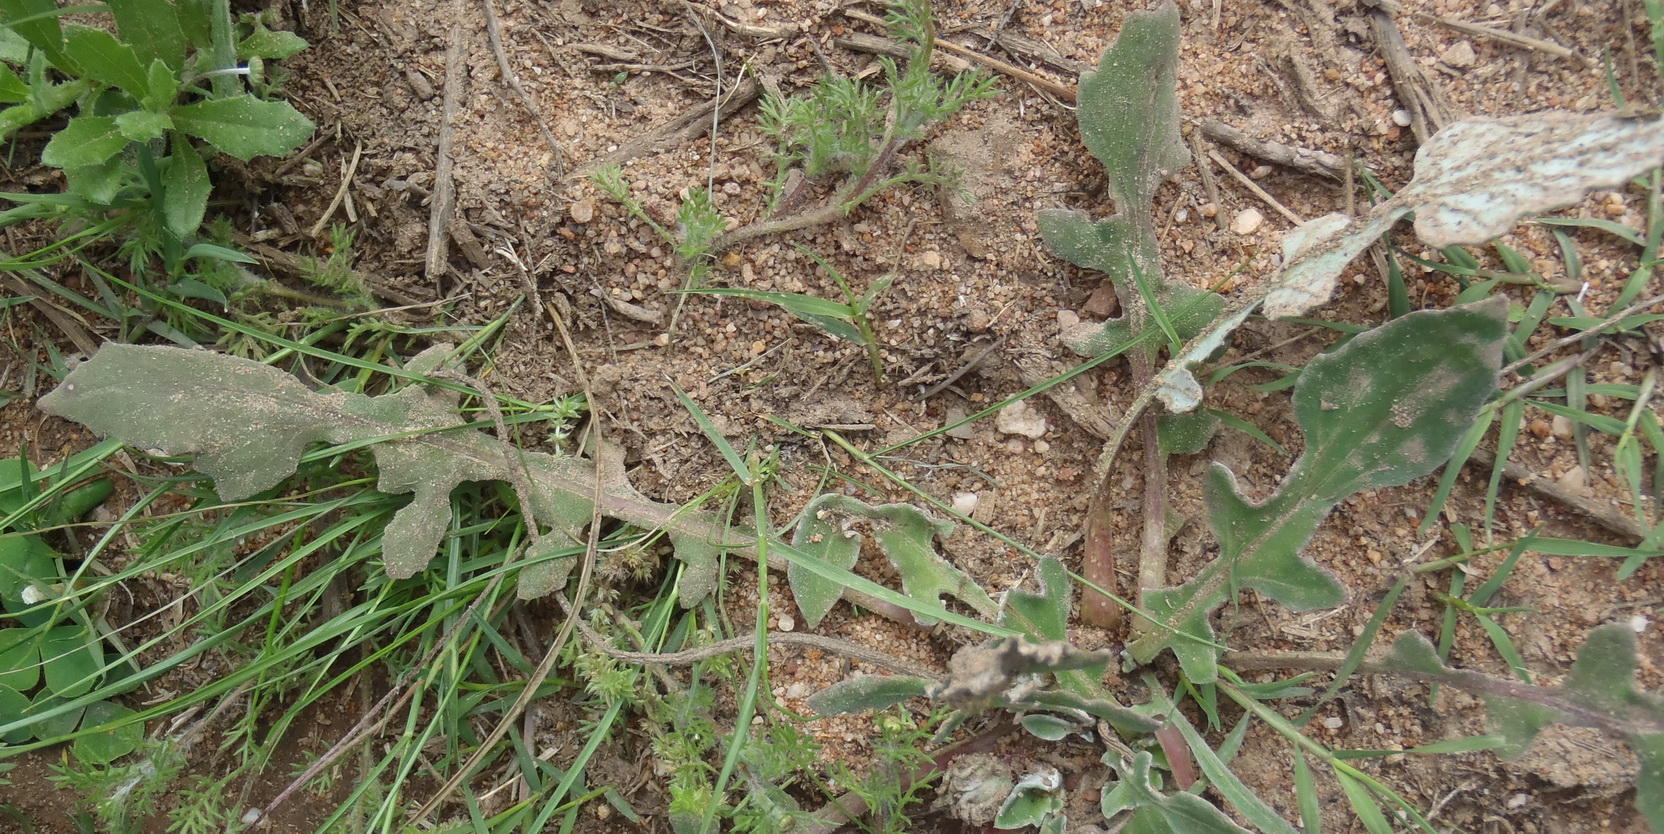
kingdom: Plantae
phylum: Tracheophyta
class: Magnoliopsida
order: Asterales
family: Asteraceae
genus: Arctotis
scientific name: Arctotis acaulis
